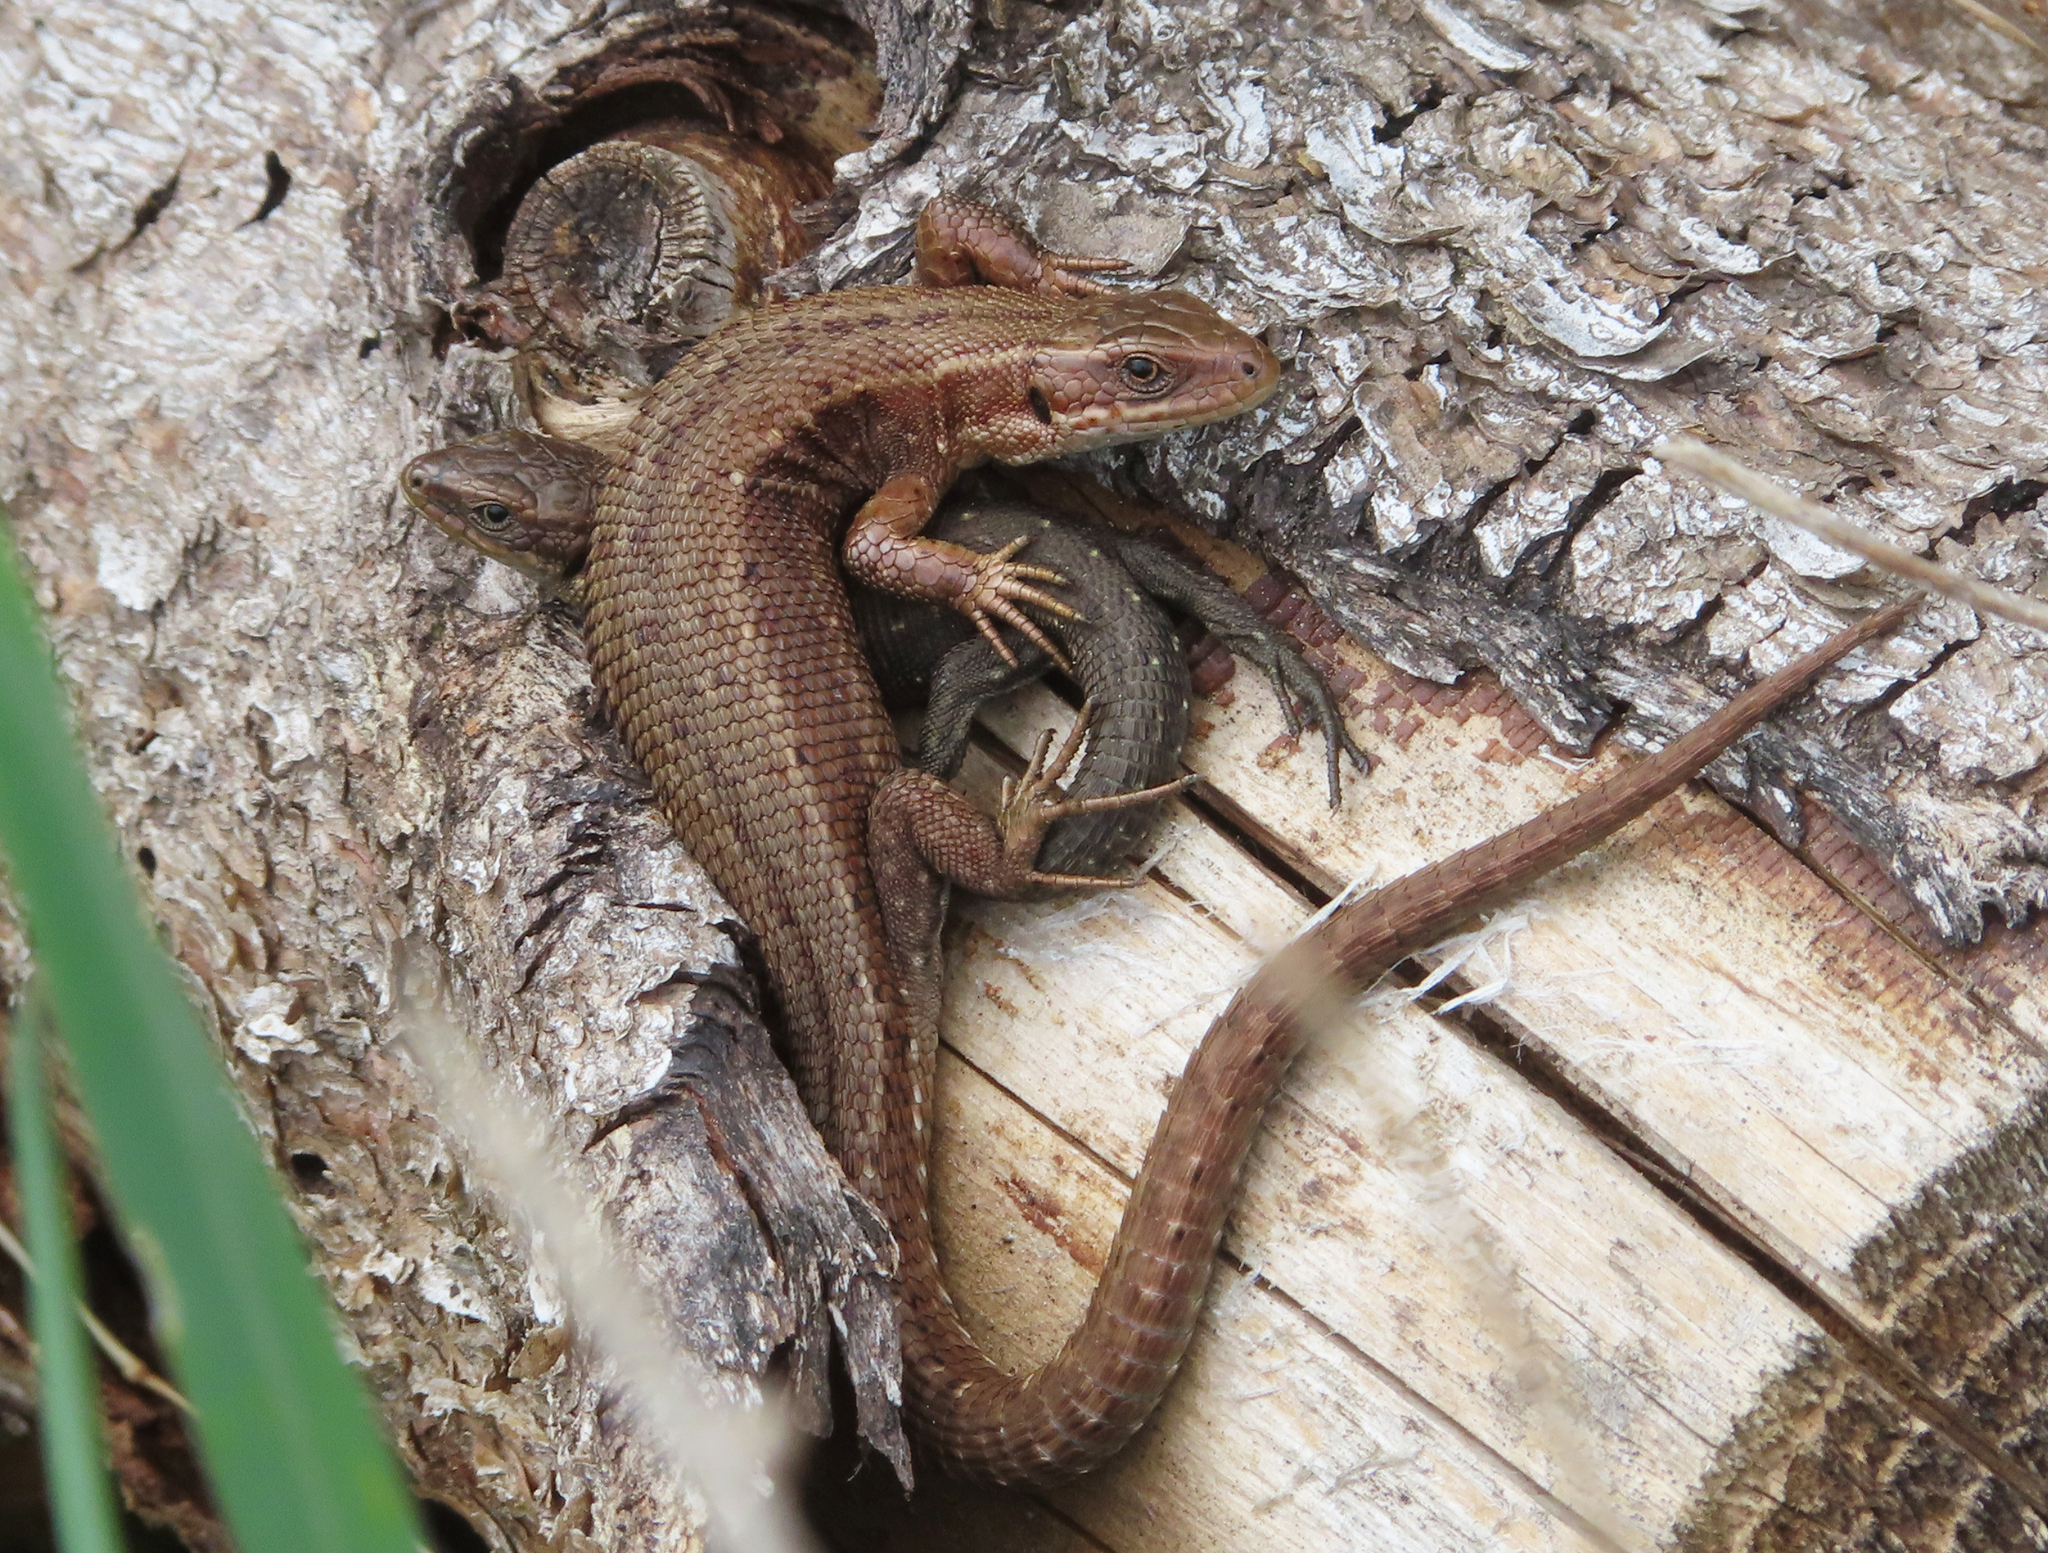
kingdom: Animalia
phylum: Chordata
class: Squamata
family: Lacertidae
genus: Zootoca
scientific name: Zootoca vivipara
